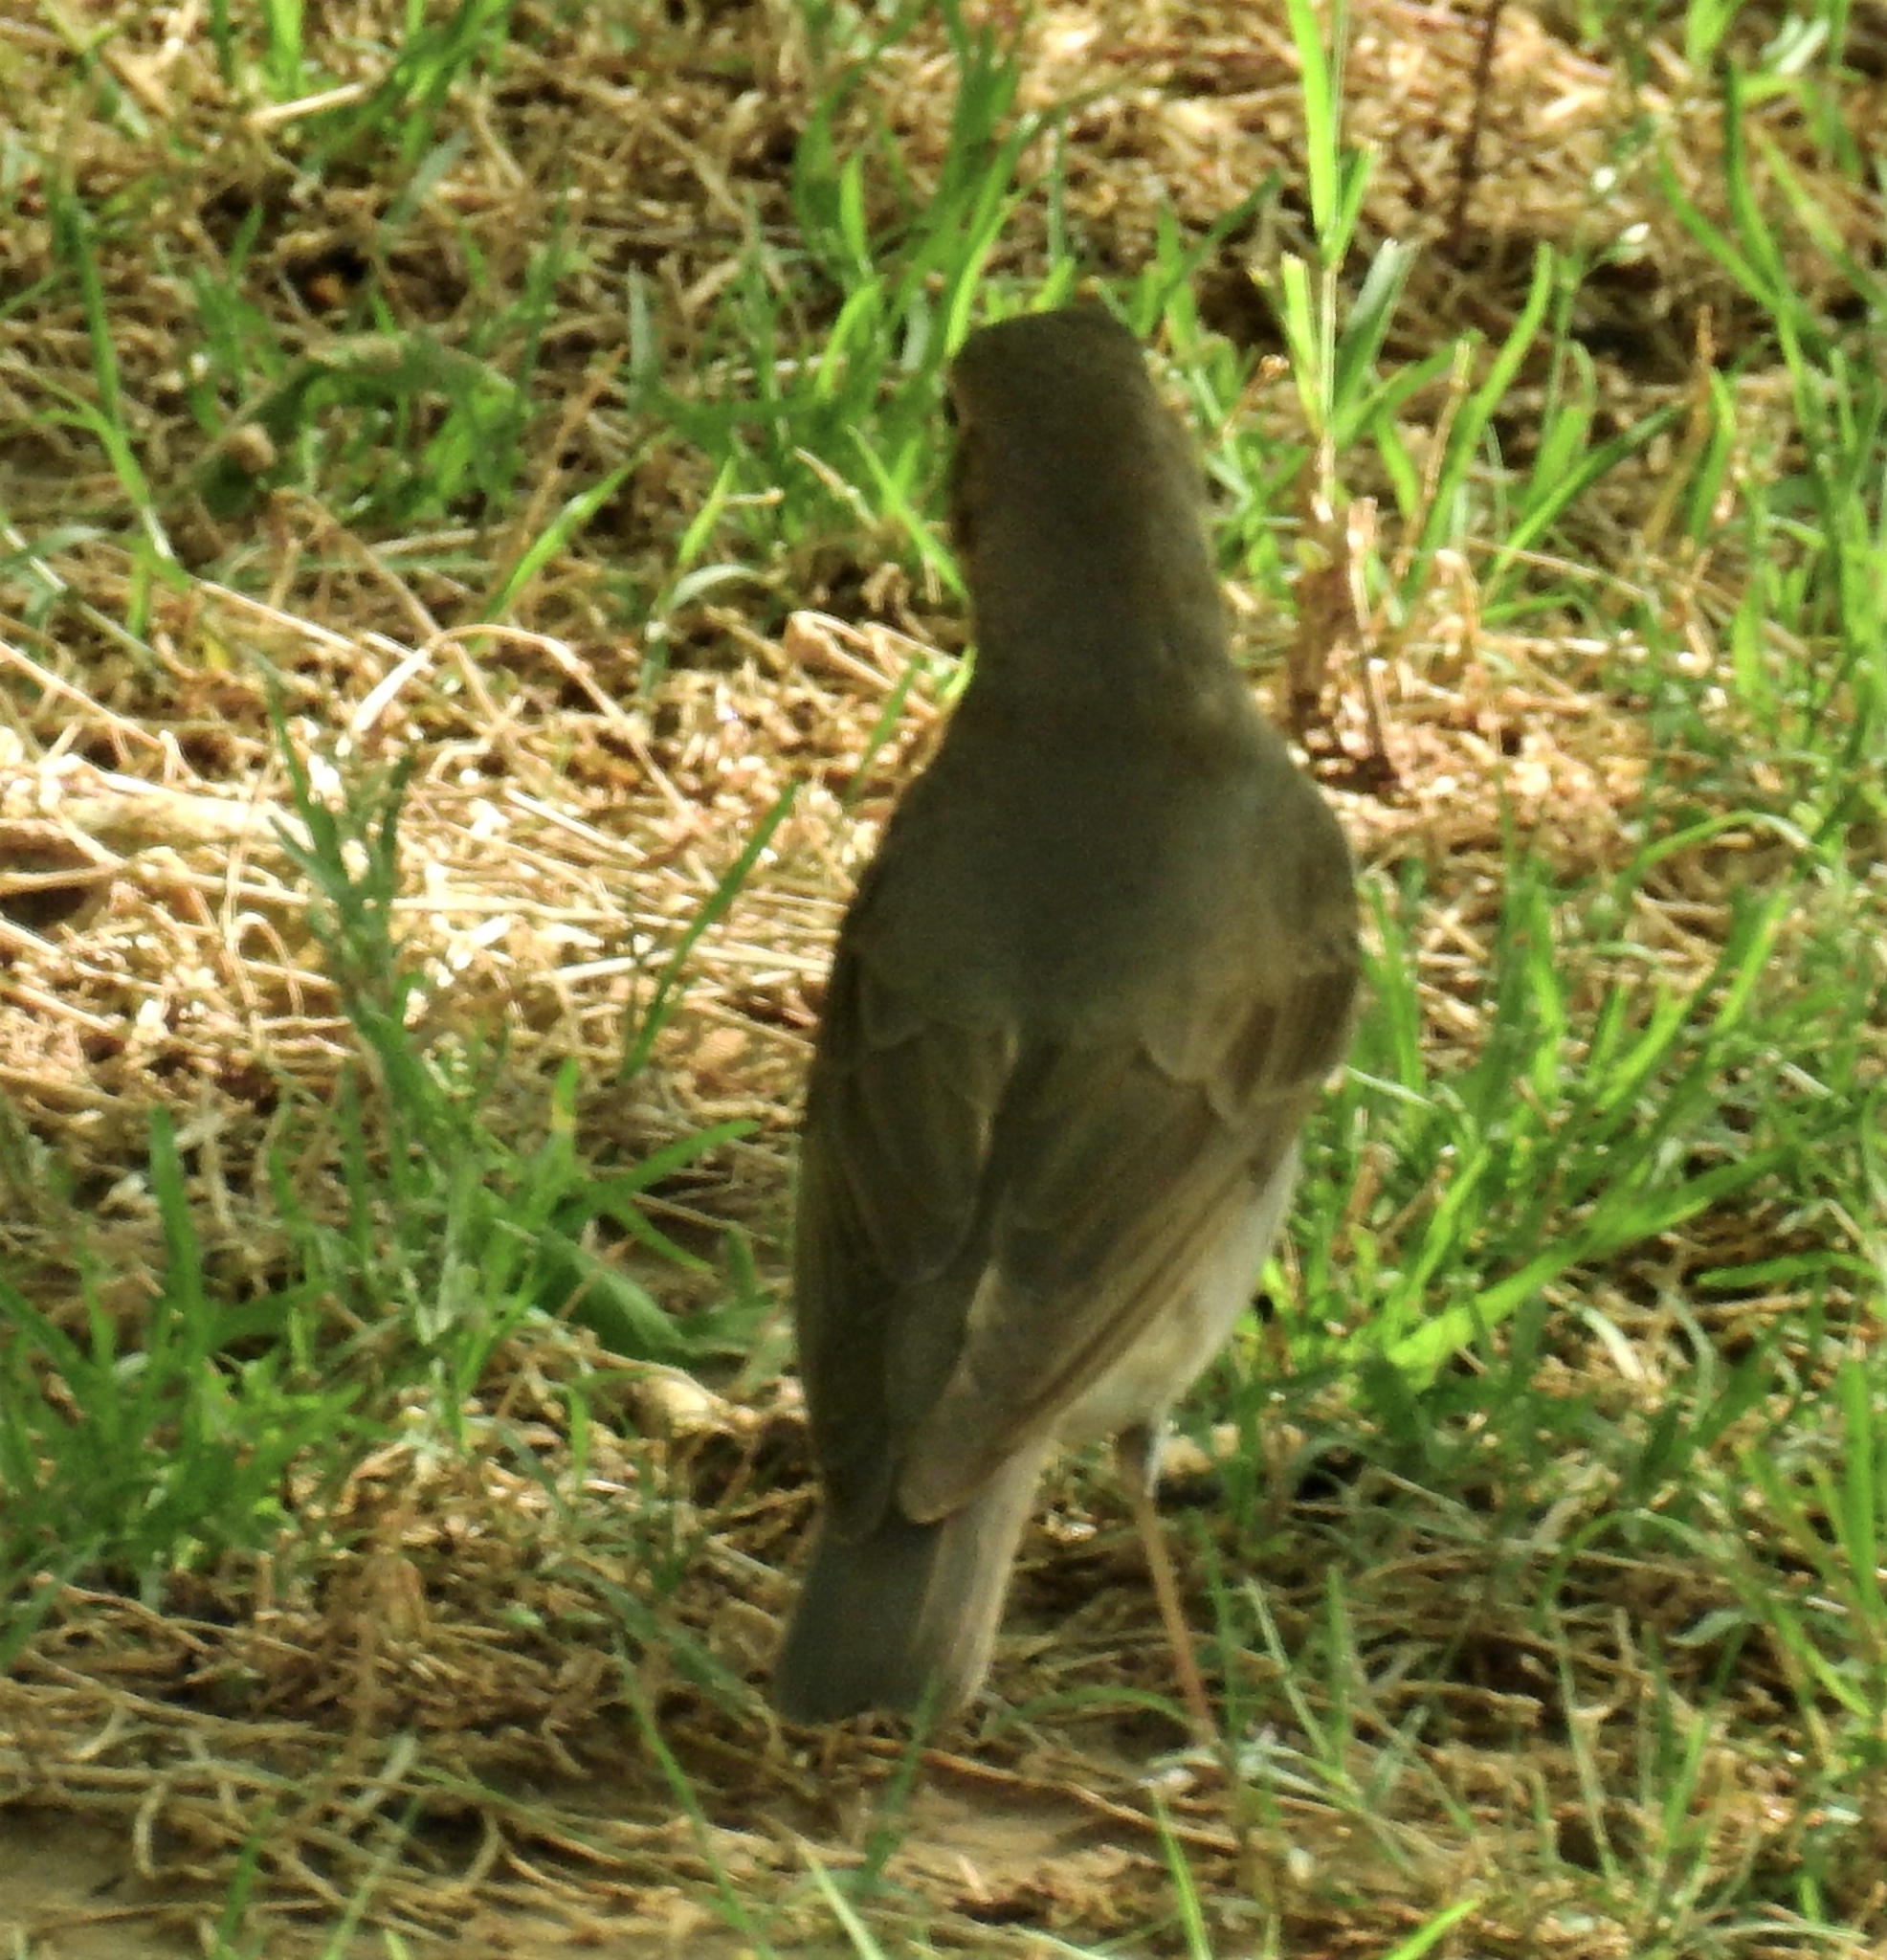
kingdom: Animalia
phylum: Chordata
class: Aves
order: Passeriformes
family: Turdidae
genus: Catharus
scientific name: Catharus ustulatus
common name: Swainson's thrush
